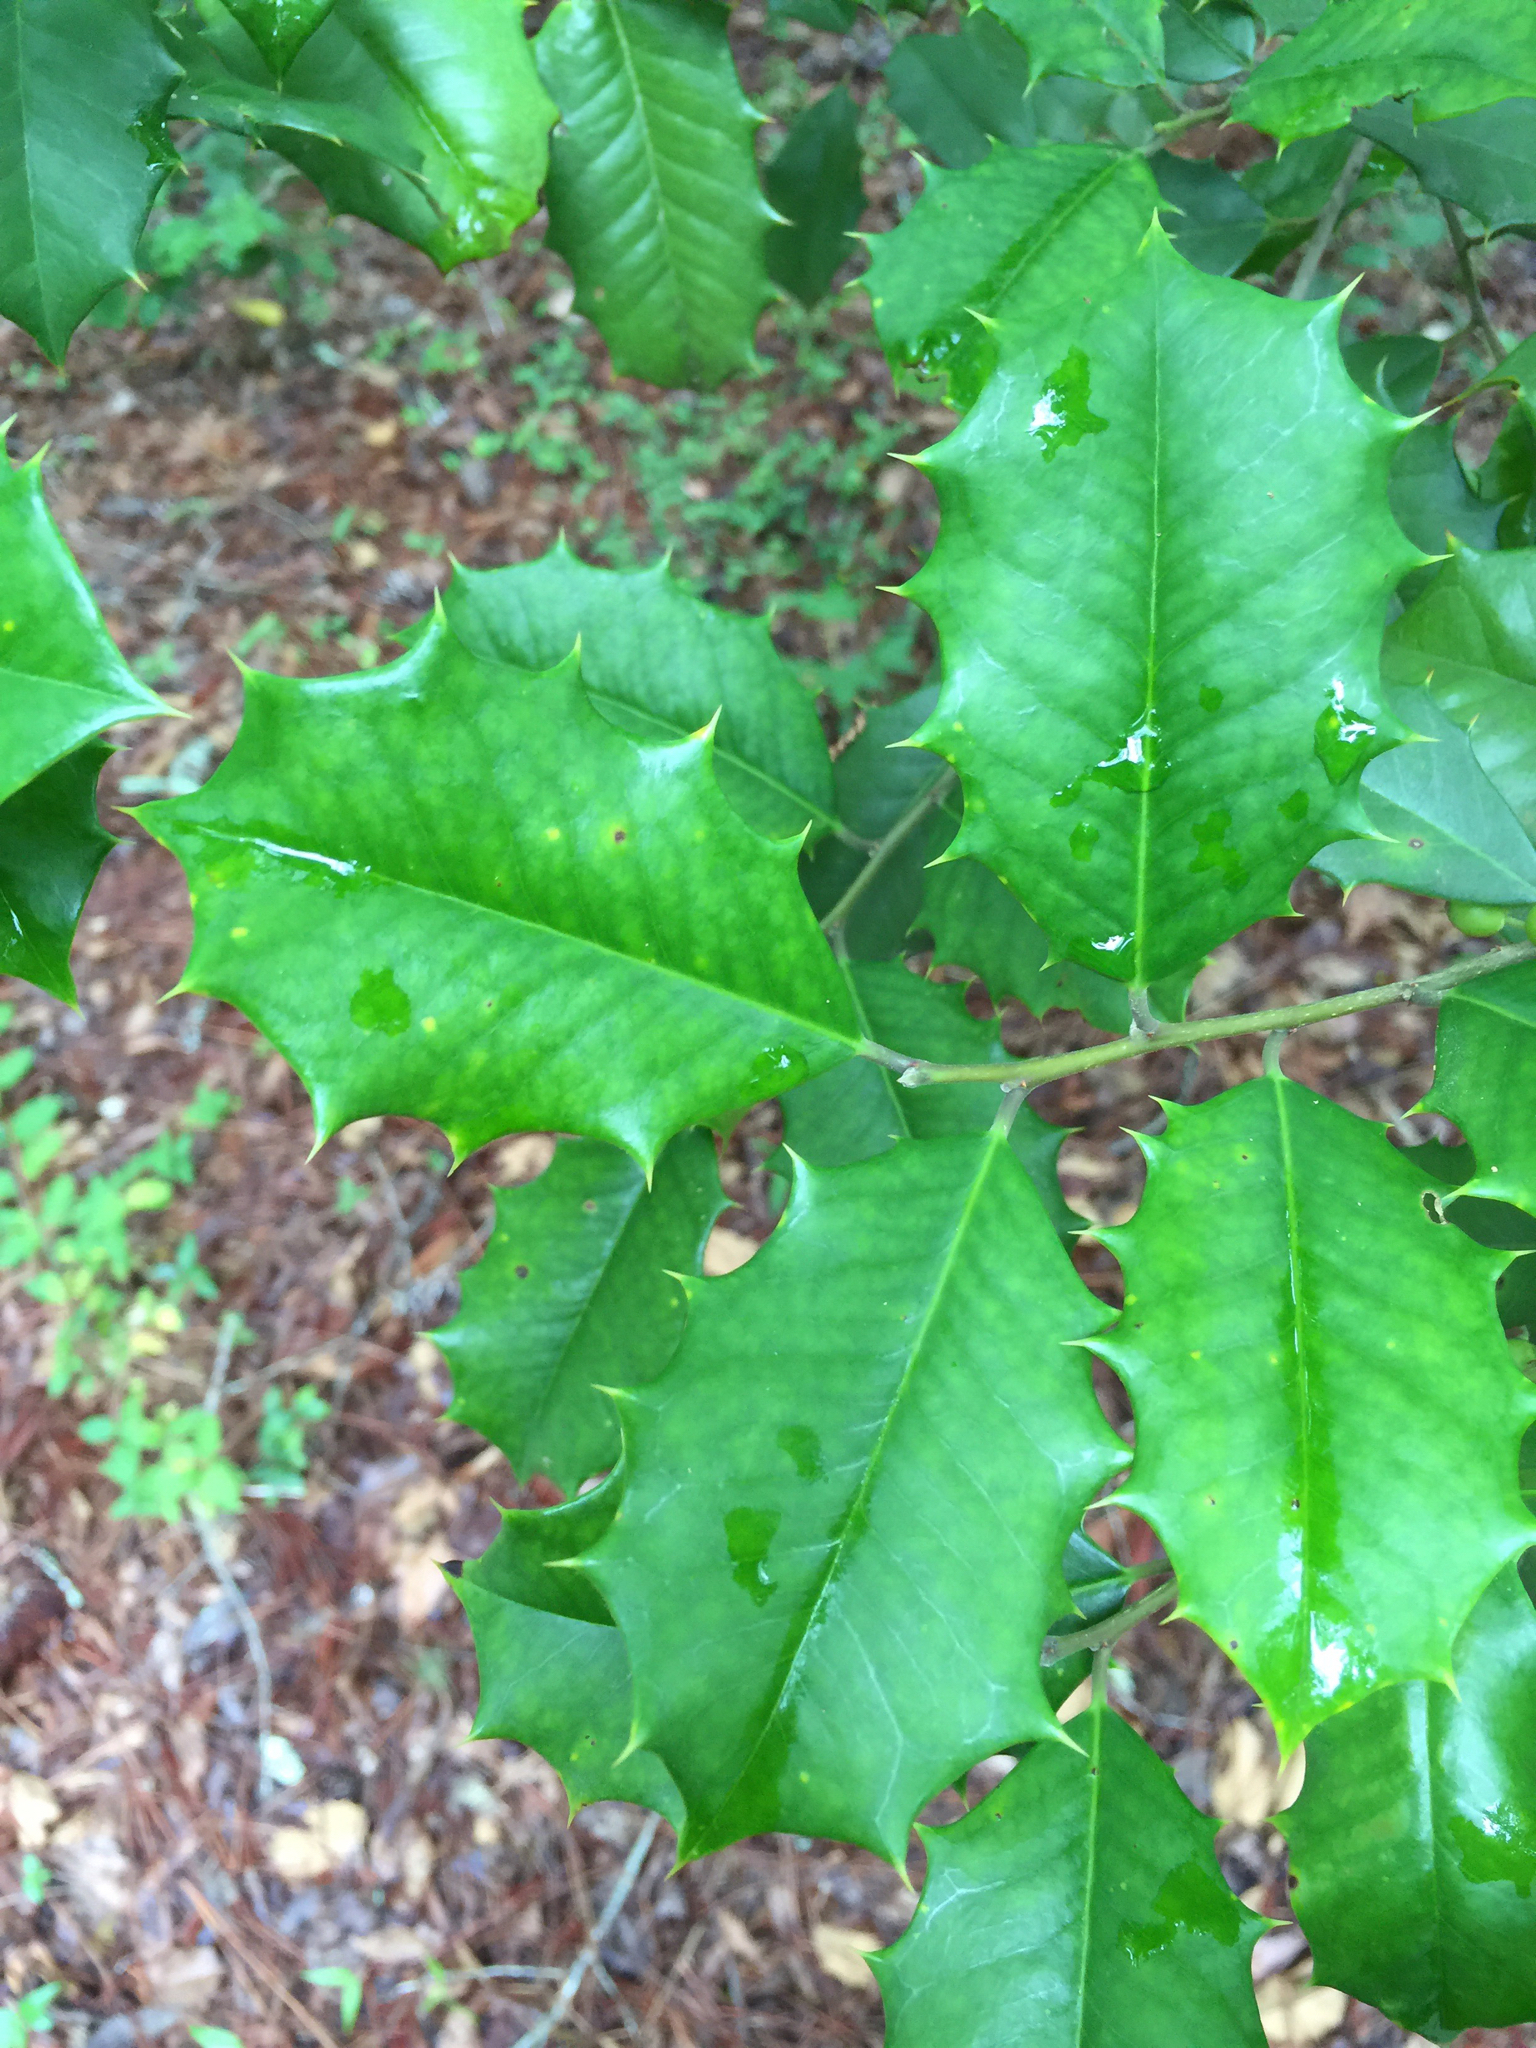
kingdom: Plantae
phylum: Tracheophyta
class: Magnoliopsida
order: Aquifoliales
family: Aquifoliaceae
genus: Ilex
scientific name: Ilex opaca
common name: American holly
